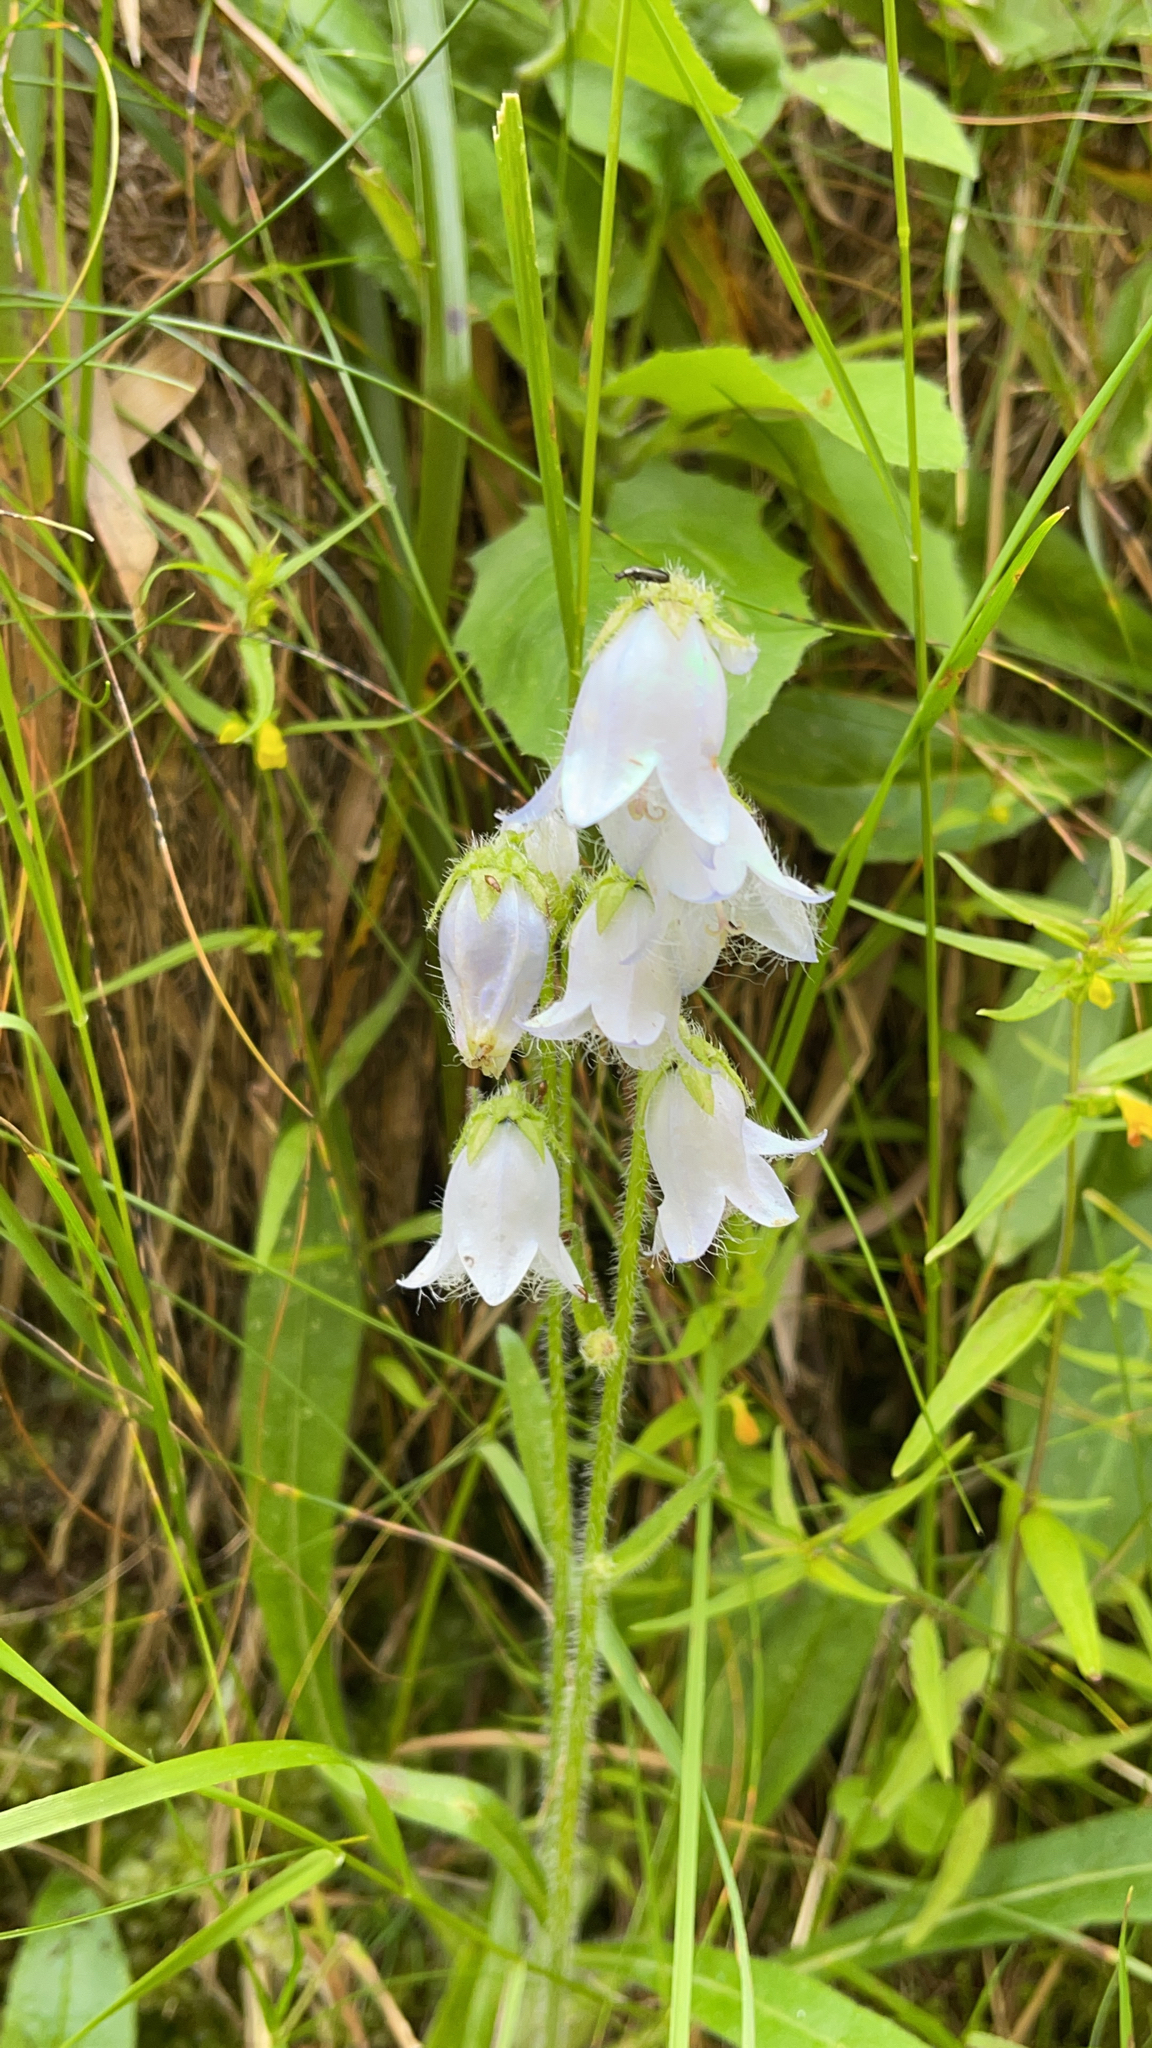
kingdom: Plantae
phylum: Tracheophyta
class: Magnoliopsida
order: Asterales
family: Campanulaceae
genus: Campanula
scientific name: Campanula barbata
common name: Bearded bellflower
